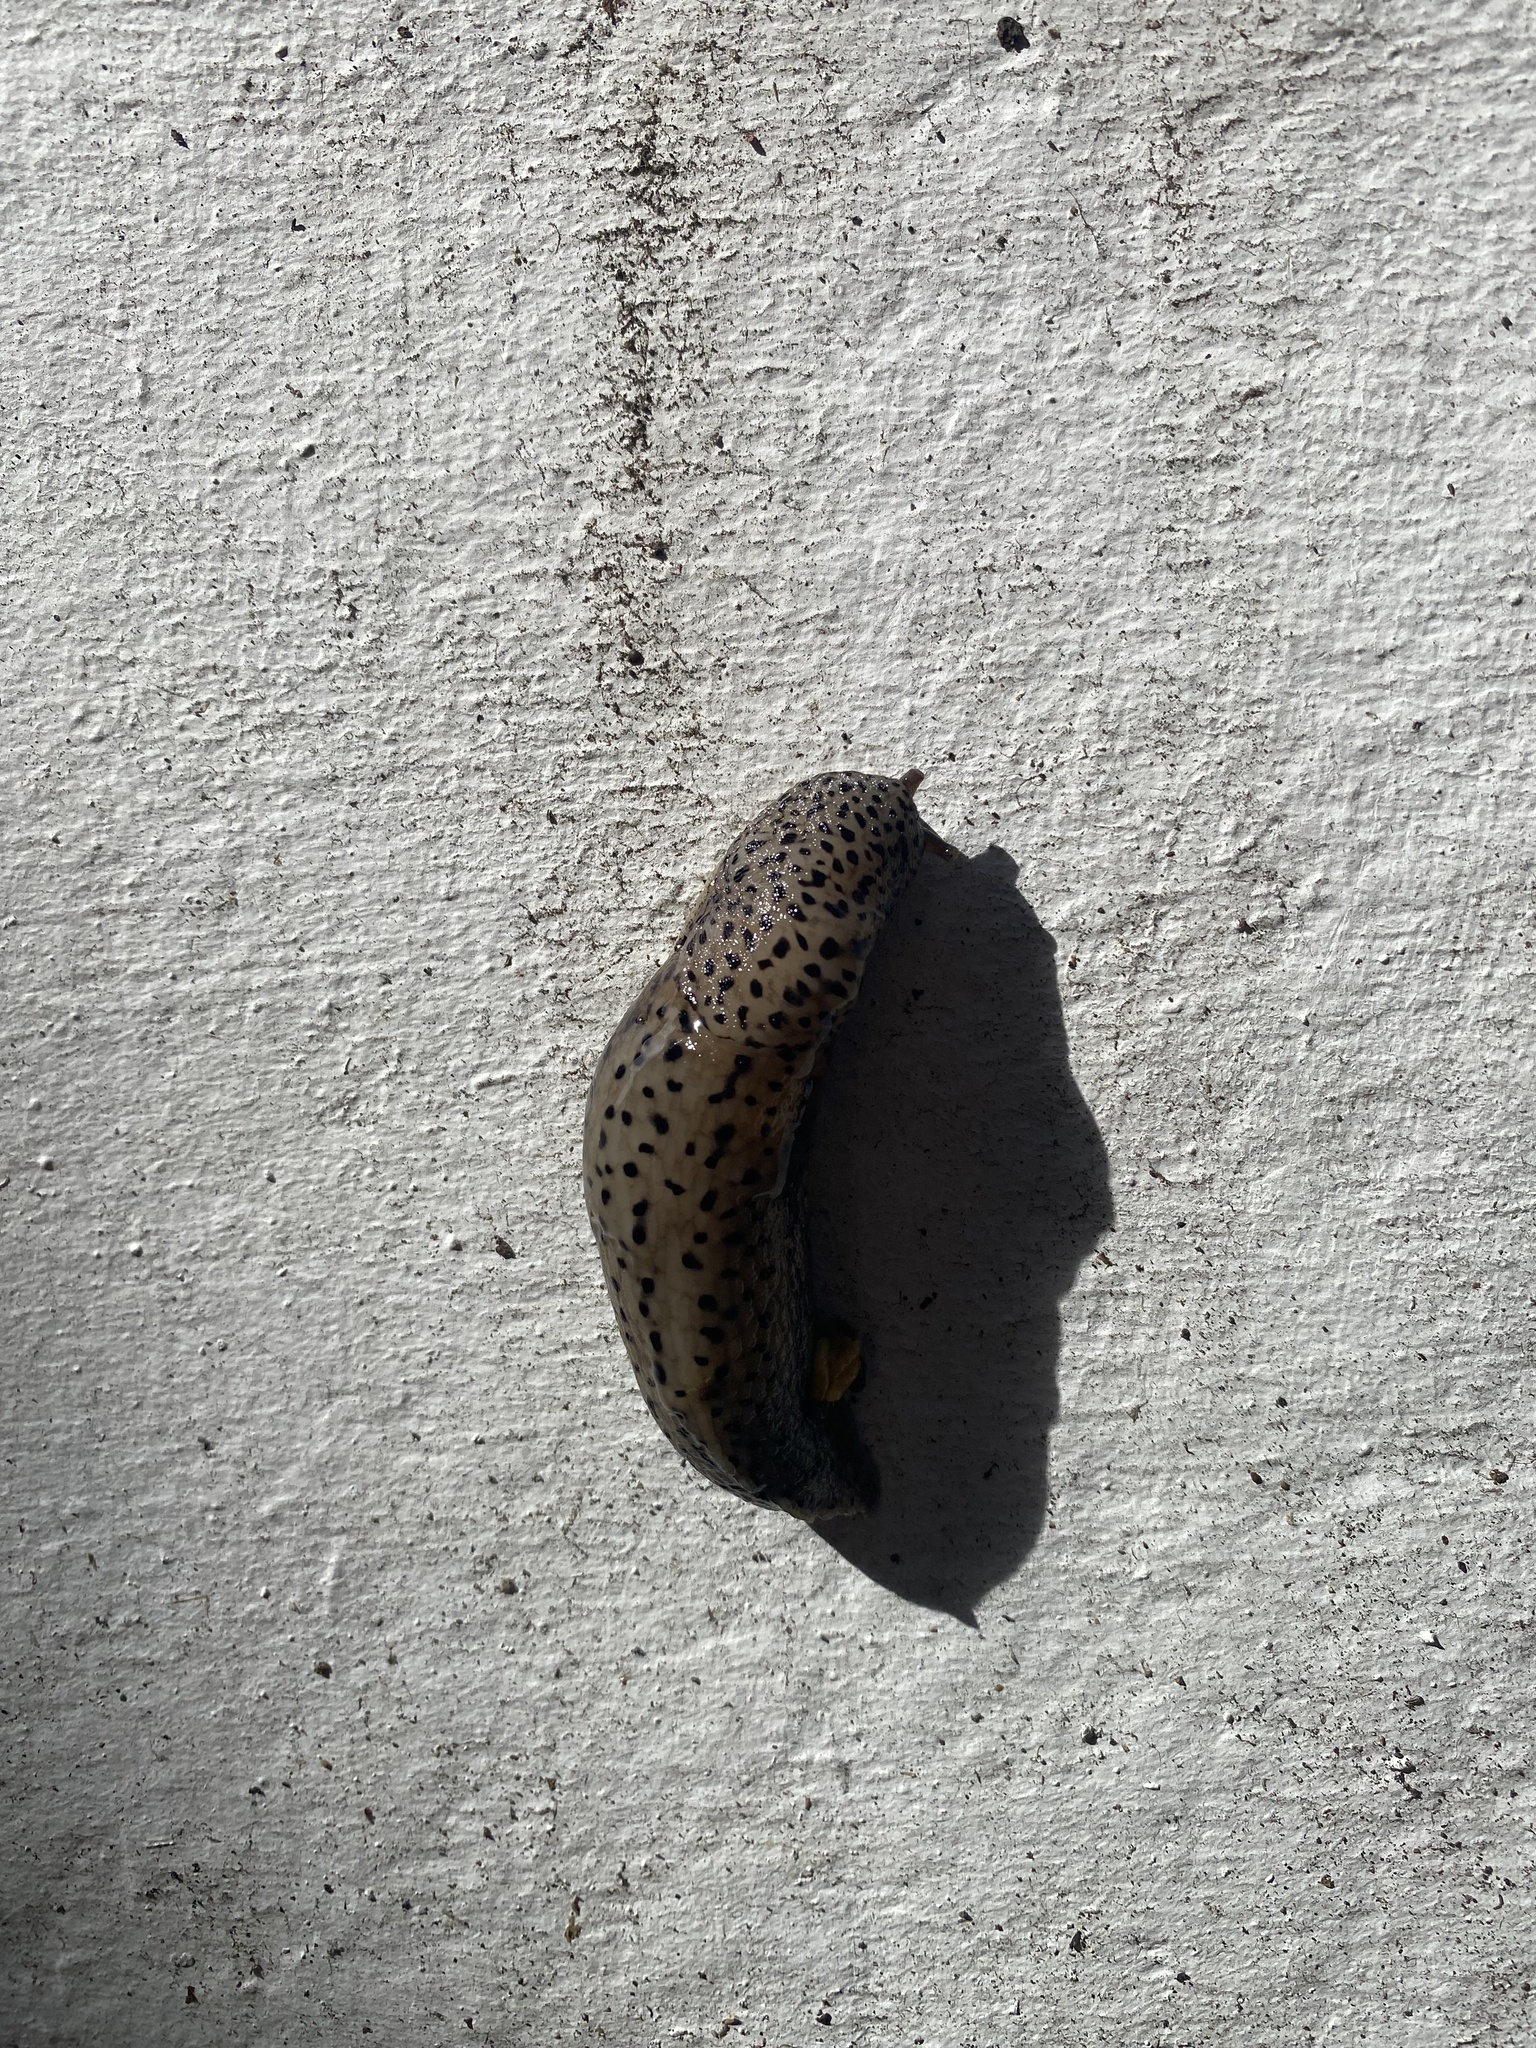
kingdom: Animalia
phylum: Mollusca
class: Gastropoda
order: Stylommatophora
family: Limacidae
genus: Limax
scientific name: Limax maximus
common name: Great grey slug
